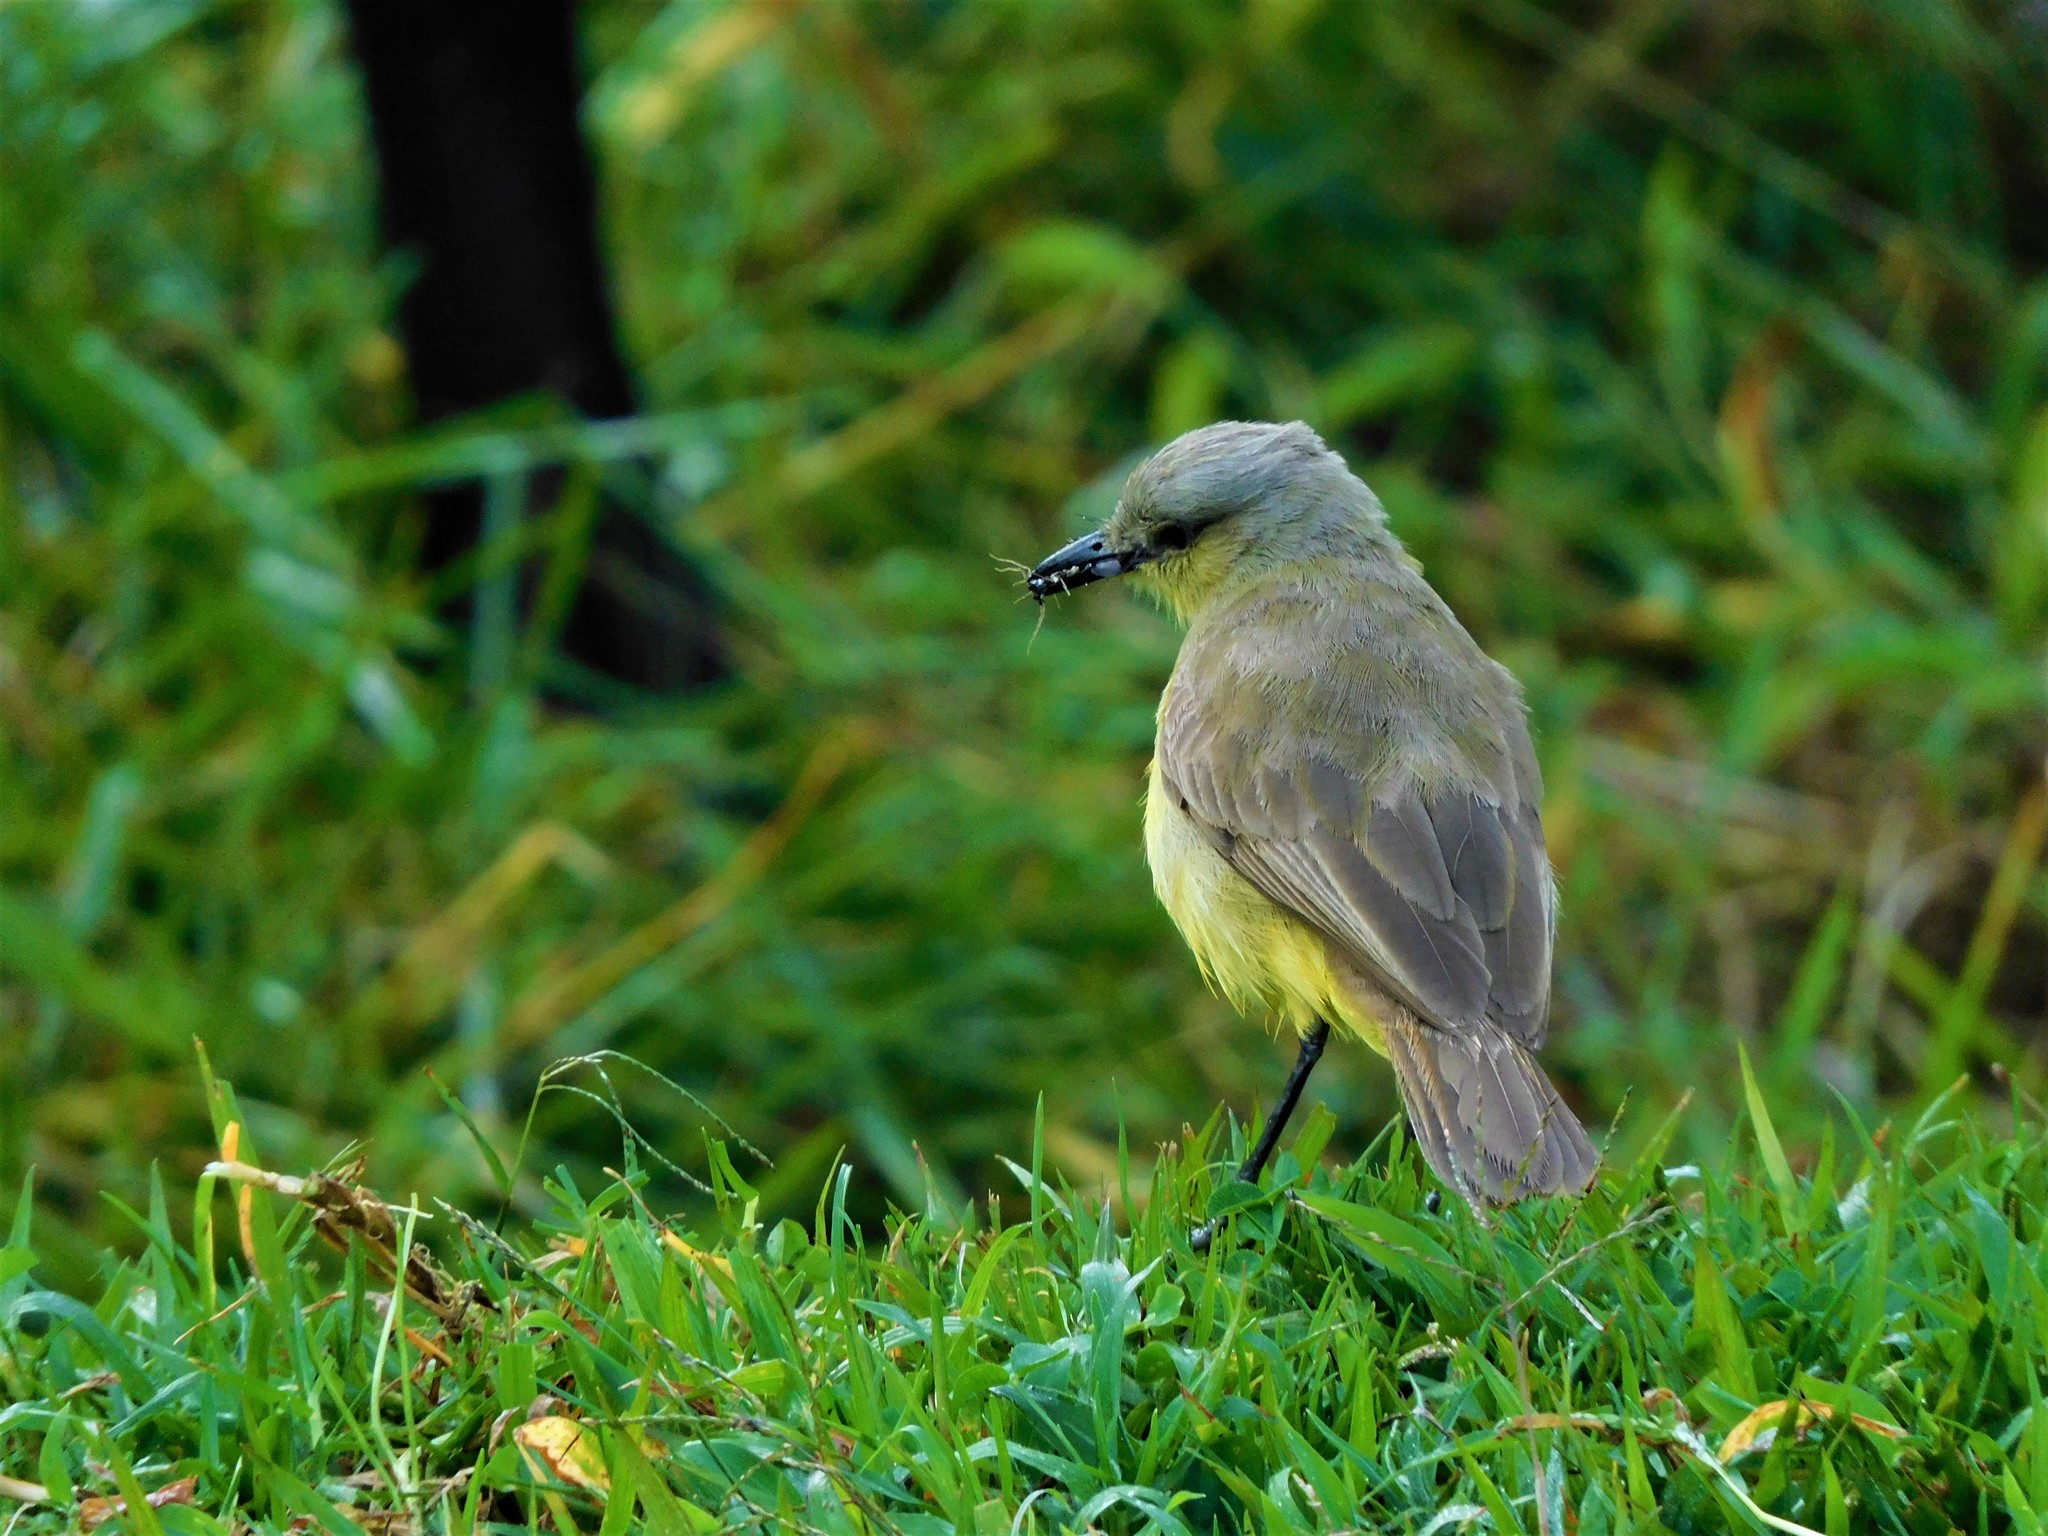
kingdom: Animalia
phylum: Chordata
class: Aves
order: Passeriformes
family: Tyrannidae
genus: Machetornis
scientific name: Machetornis rixosa
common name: Cattle tyrant
